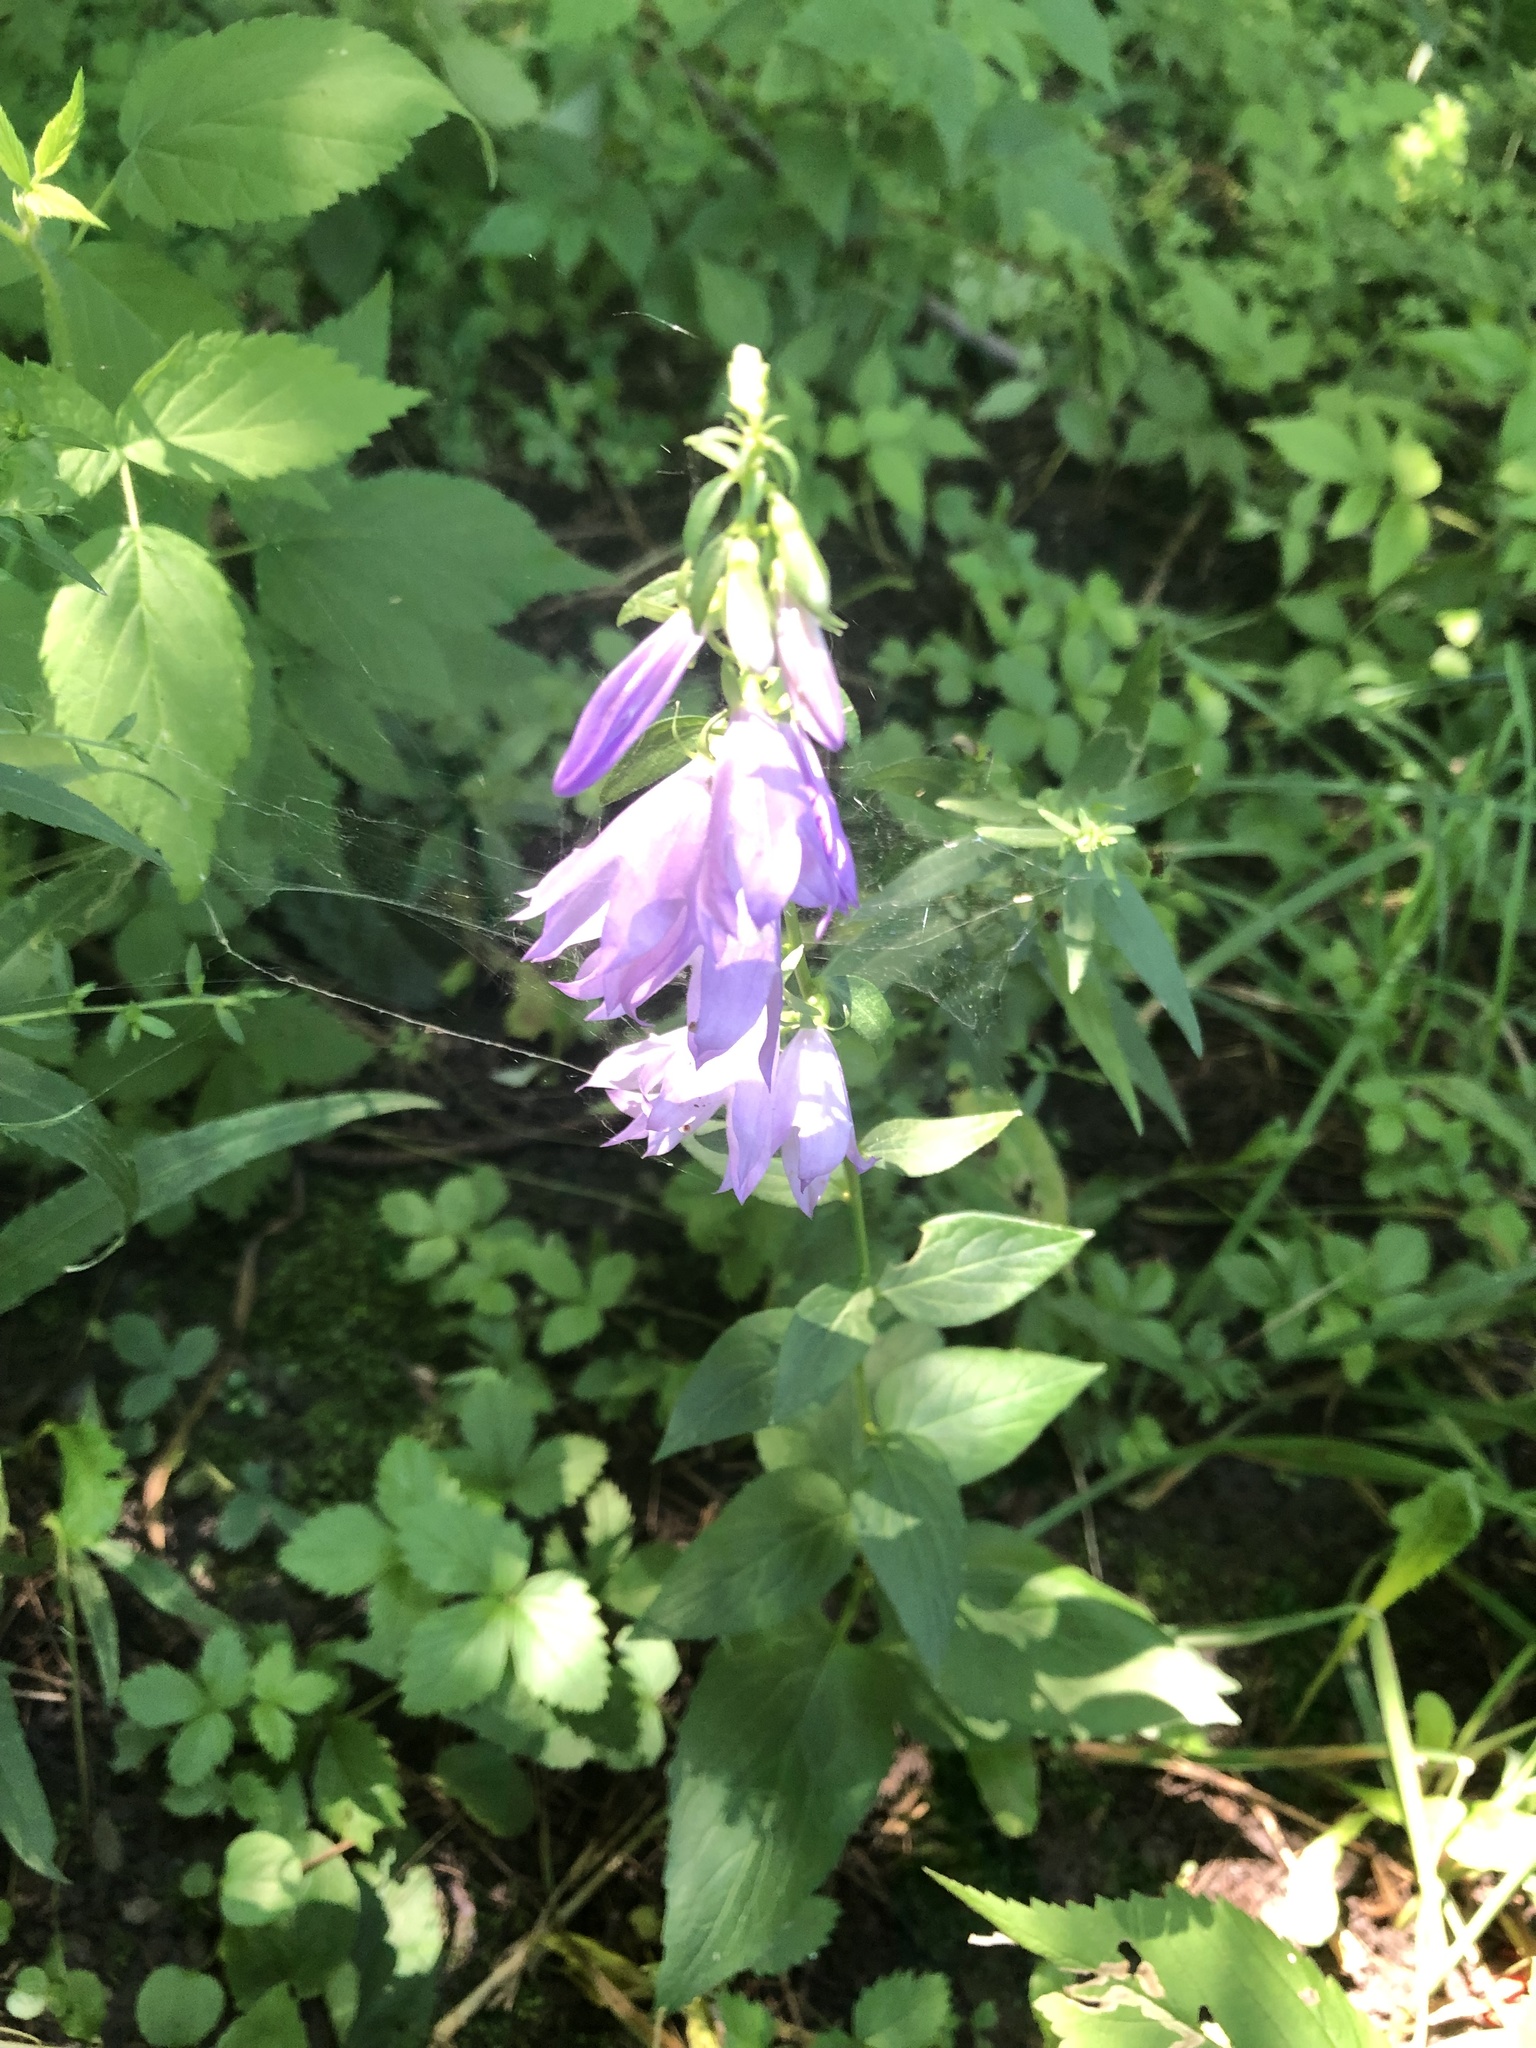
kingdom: Plantae
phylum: Tracheophyta
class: Magnoliopsida
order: Asterales
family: Campanulaceae
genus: Campanula
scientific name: Campanula rapunculoides
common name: Creeping bellflower
